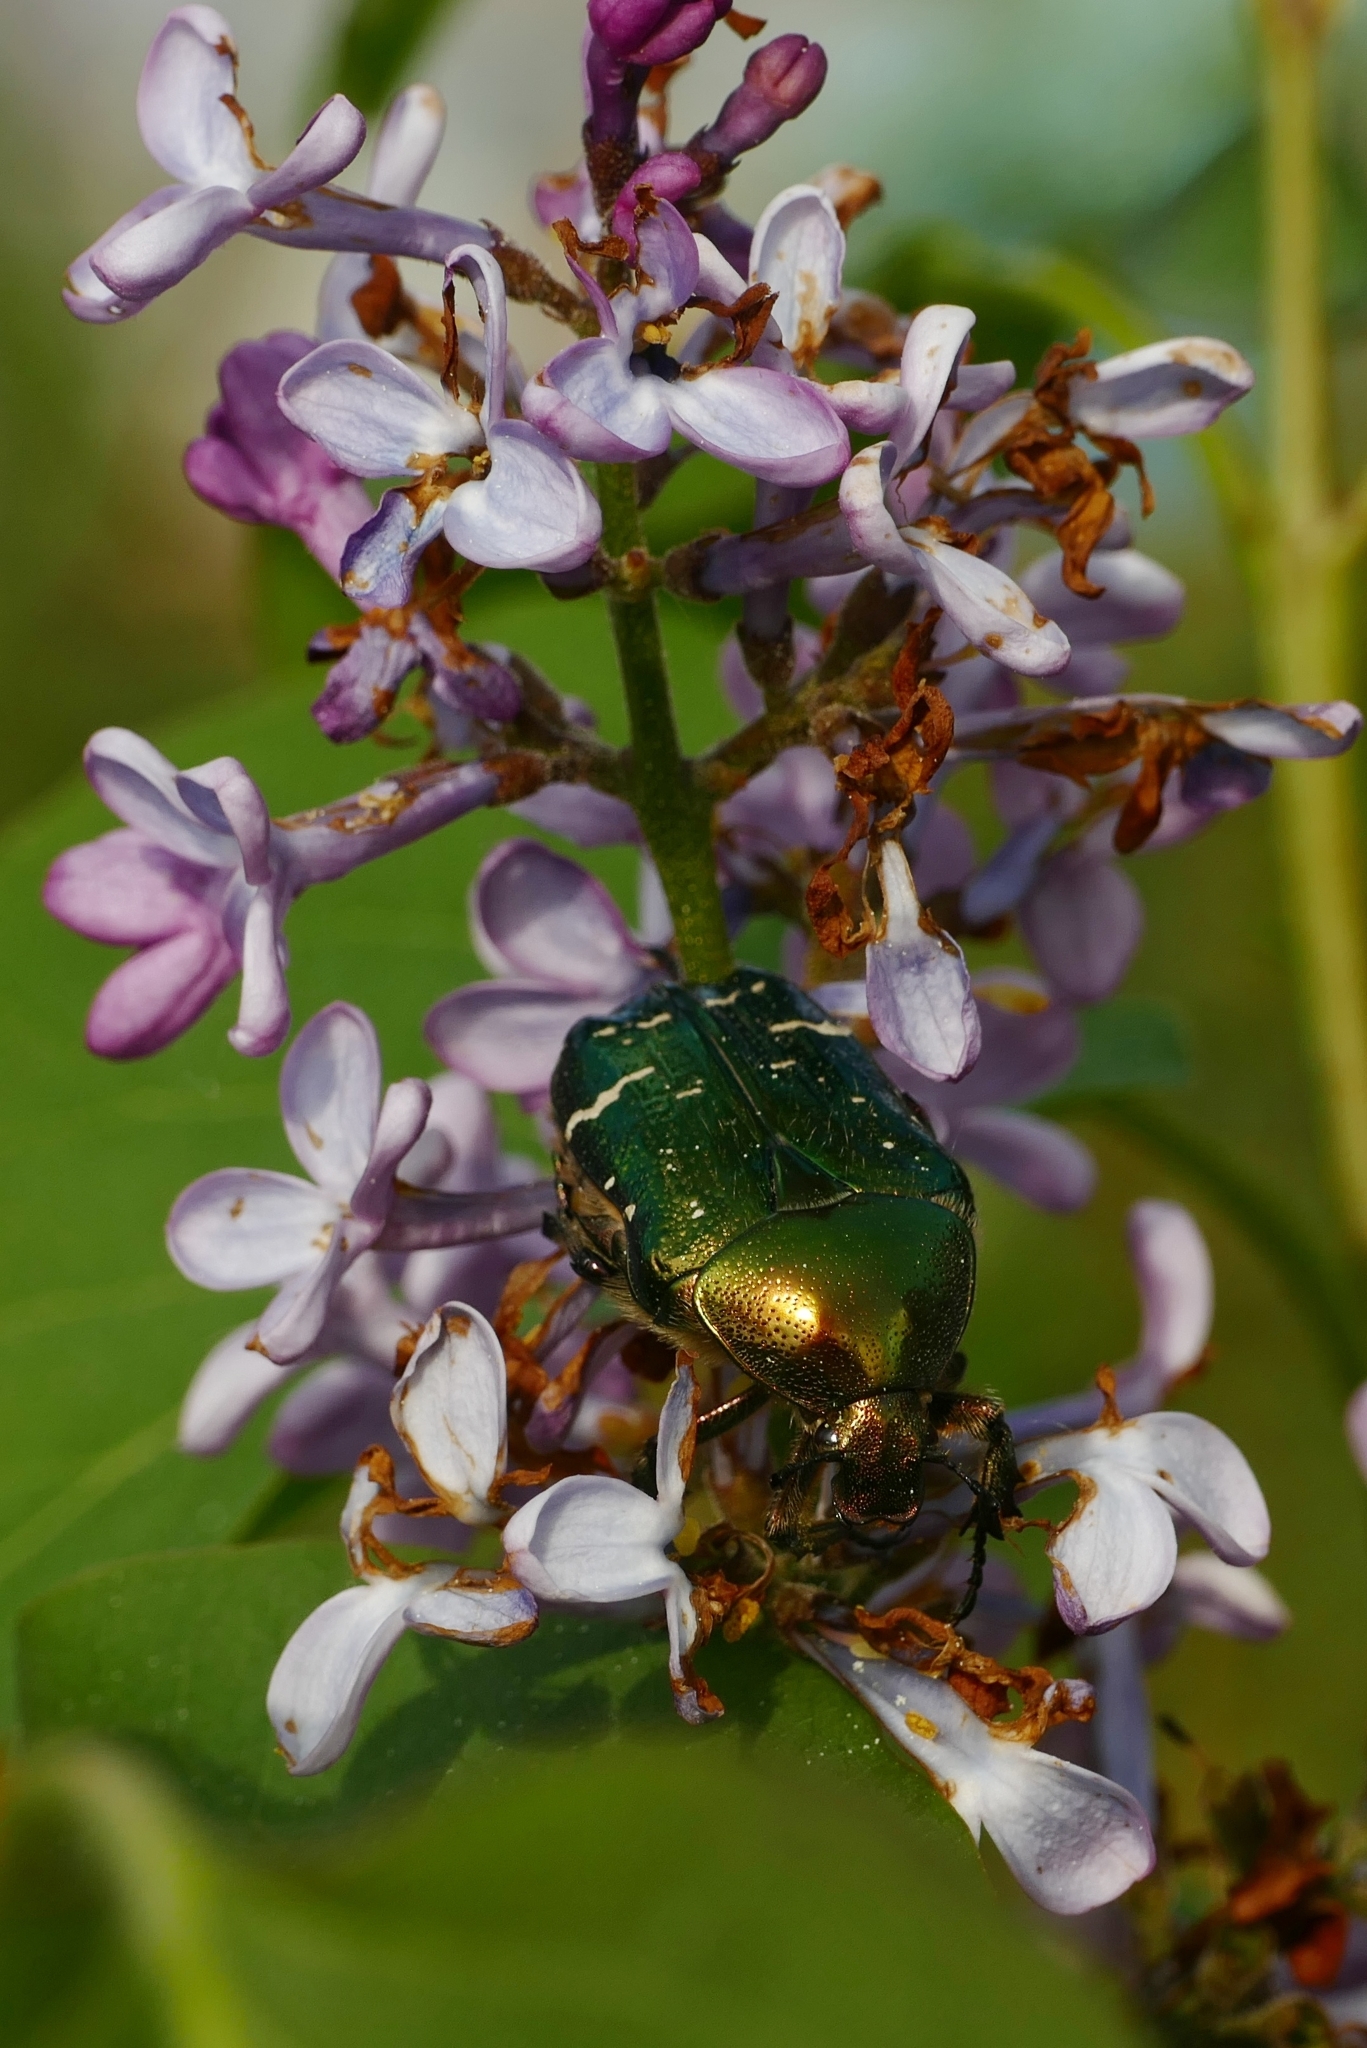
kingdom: Animalia
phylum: Arthropoda
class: Insecta
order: Coleoptera
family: Scarabaeidae
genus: Cetonia
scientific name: Cetonia aurata
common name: Rose chafer
